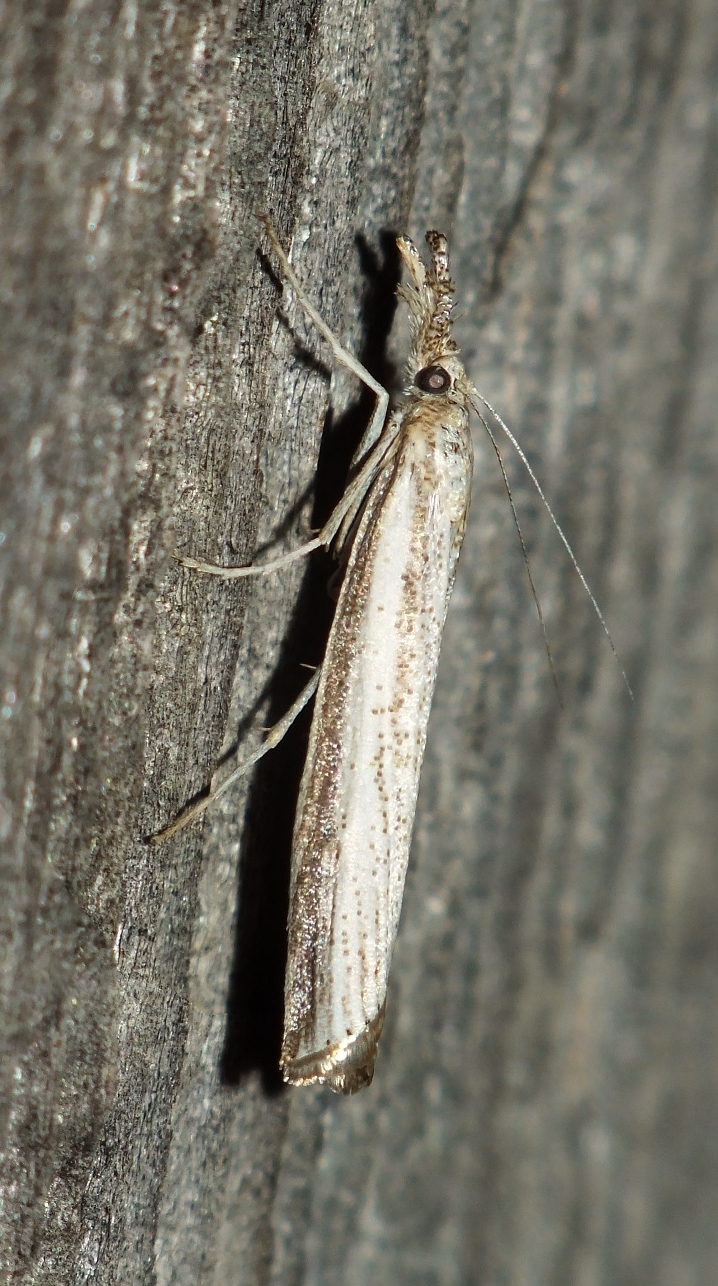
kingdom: Animalia
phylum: Arthropoda
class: Insecta
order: Lepidoptera
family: Crambidae
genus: Agriphila
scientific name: Agriphila poliellus
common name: Grey grass-veneer
